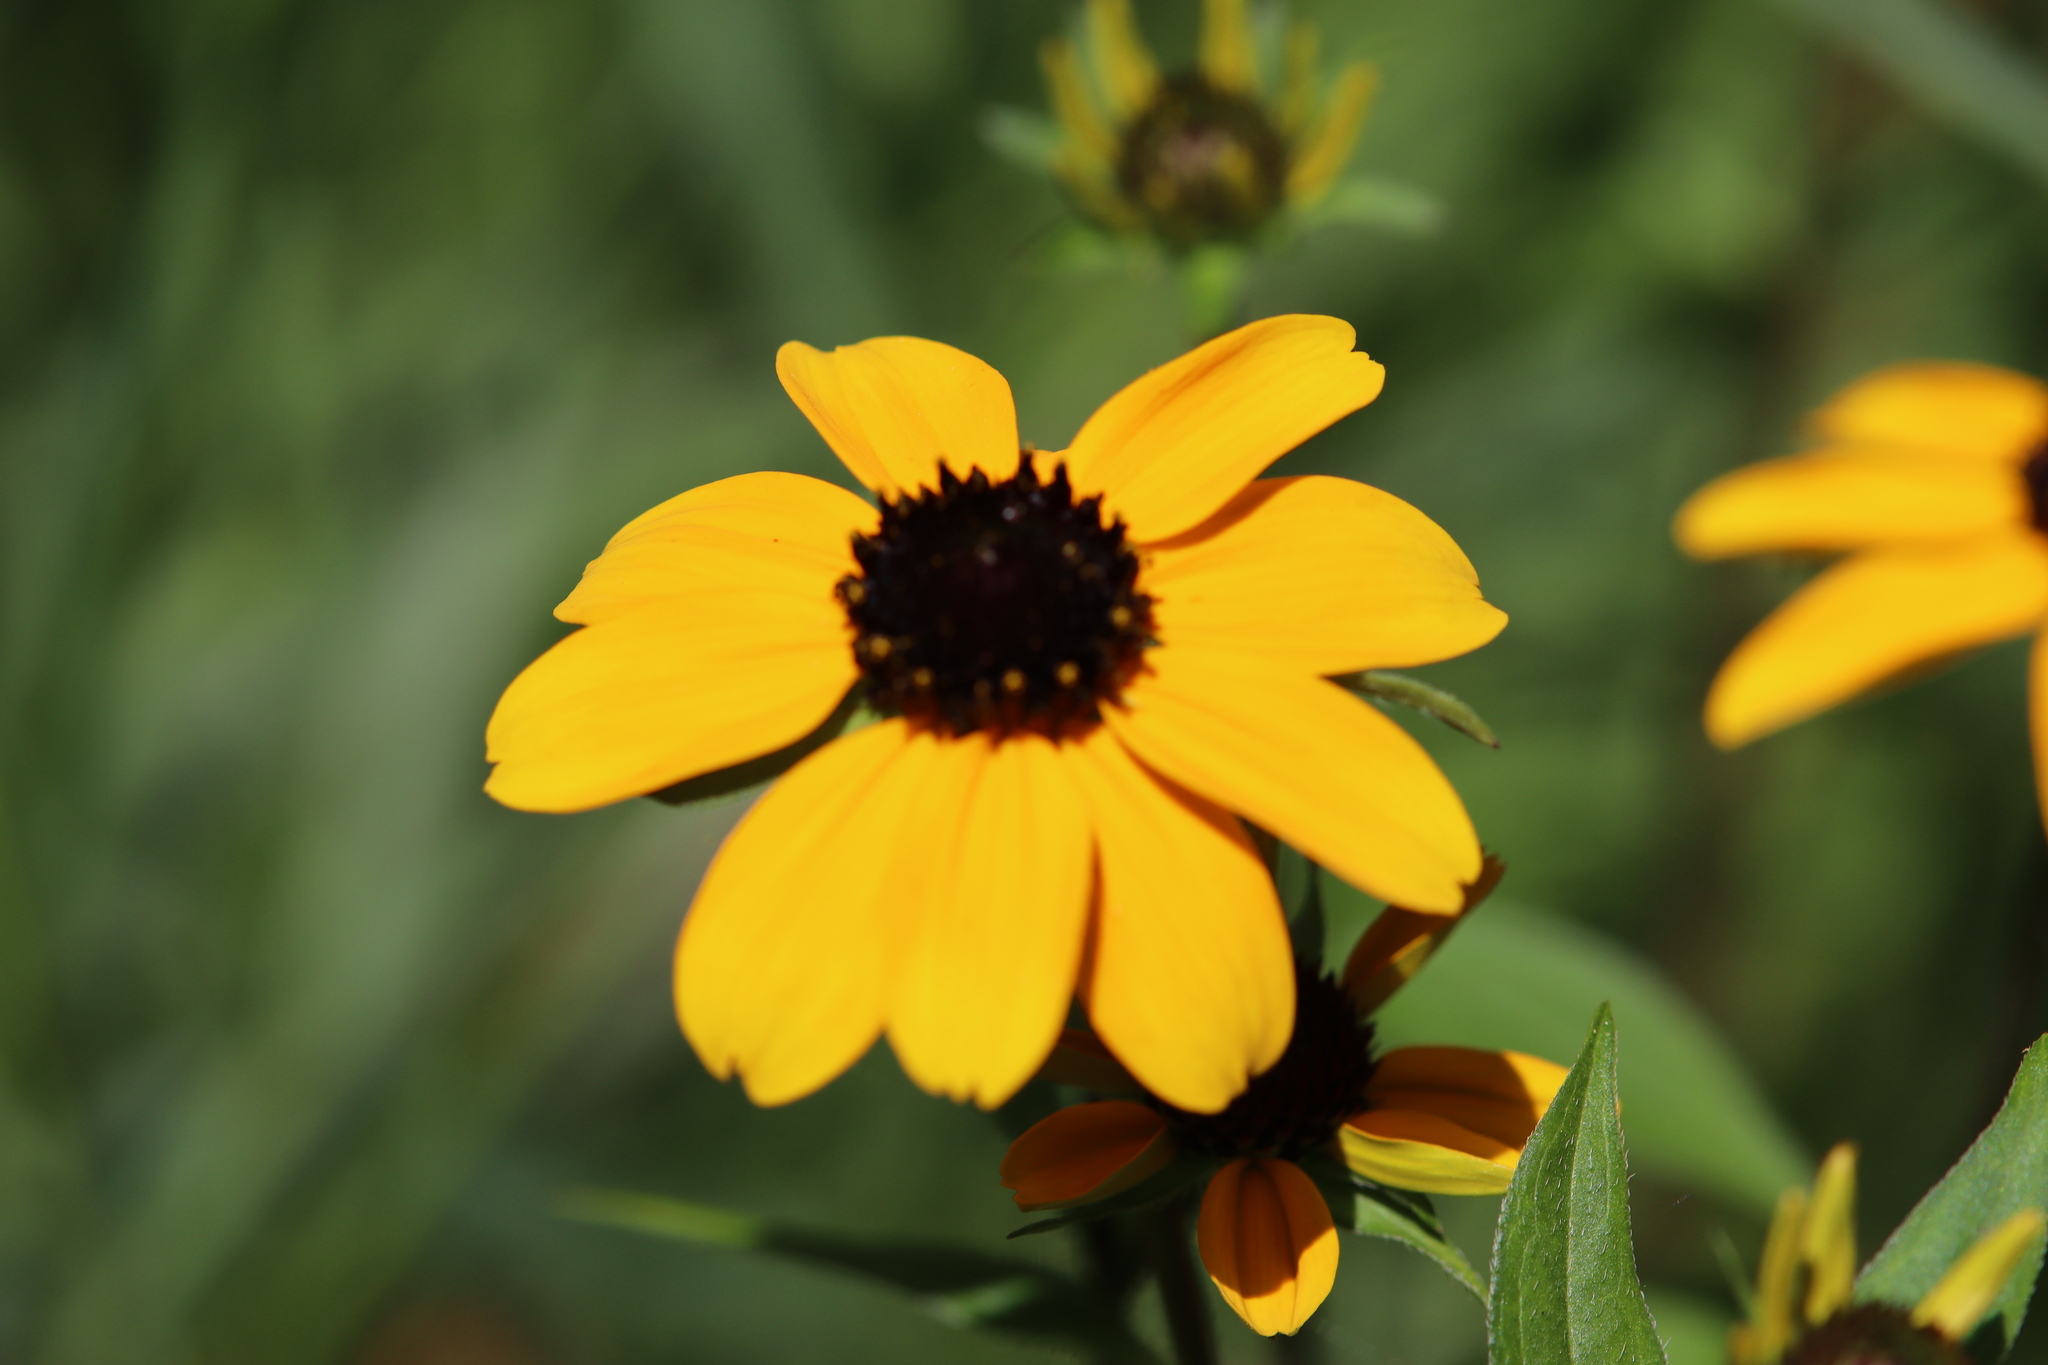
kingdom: Plantae
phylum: Tracheophyta
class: Magnoliopsida
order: Asterales
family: Asteraceae
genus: Rudbeckia
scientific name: Rudbeckia triloba
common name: Thin-leaved coneflower
